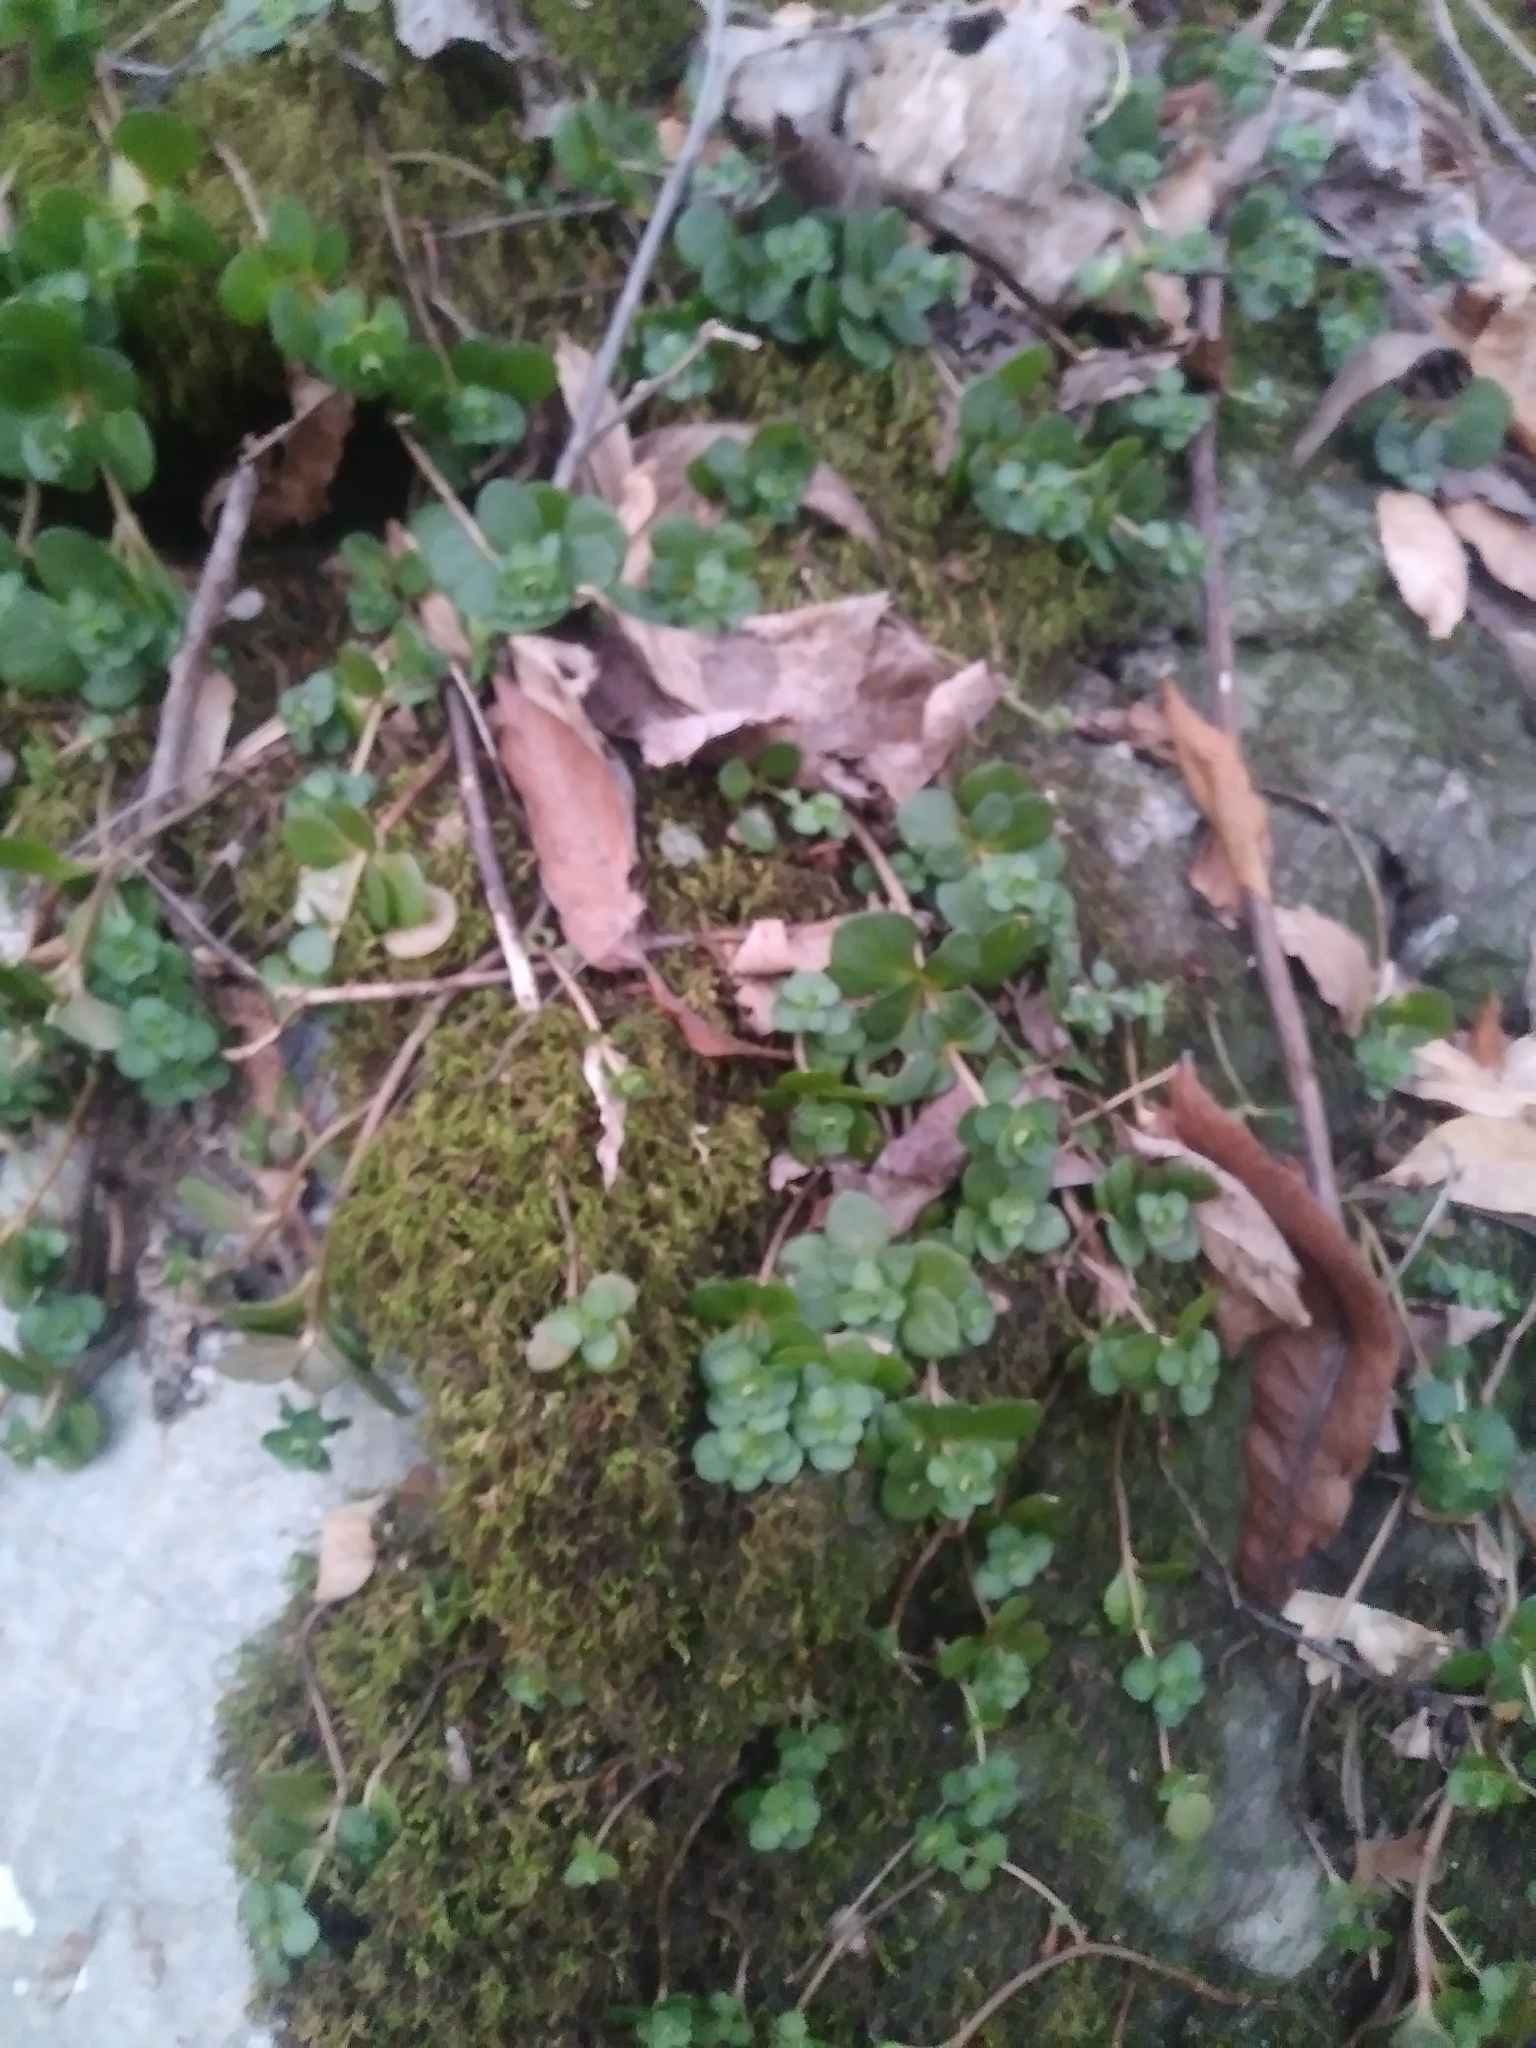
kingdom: Plantae
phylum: Tracheophyta
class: Magnoliopsida
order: Saxifragales
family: Crassulaceae
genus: Sedum
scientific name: Sedum ternatum
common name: Wild stonecrop
